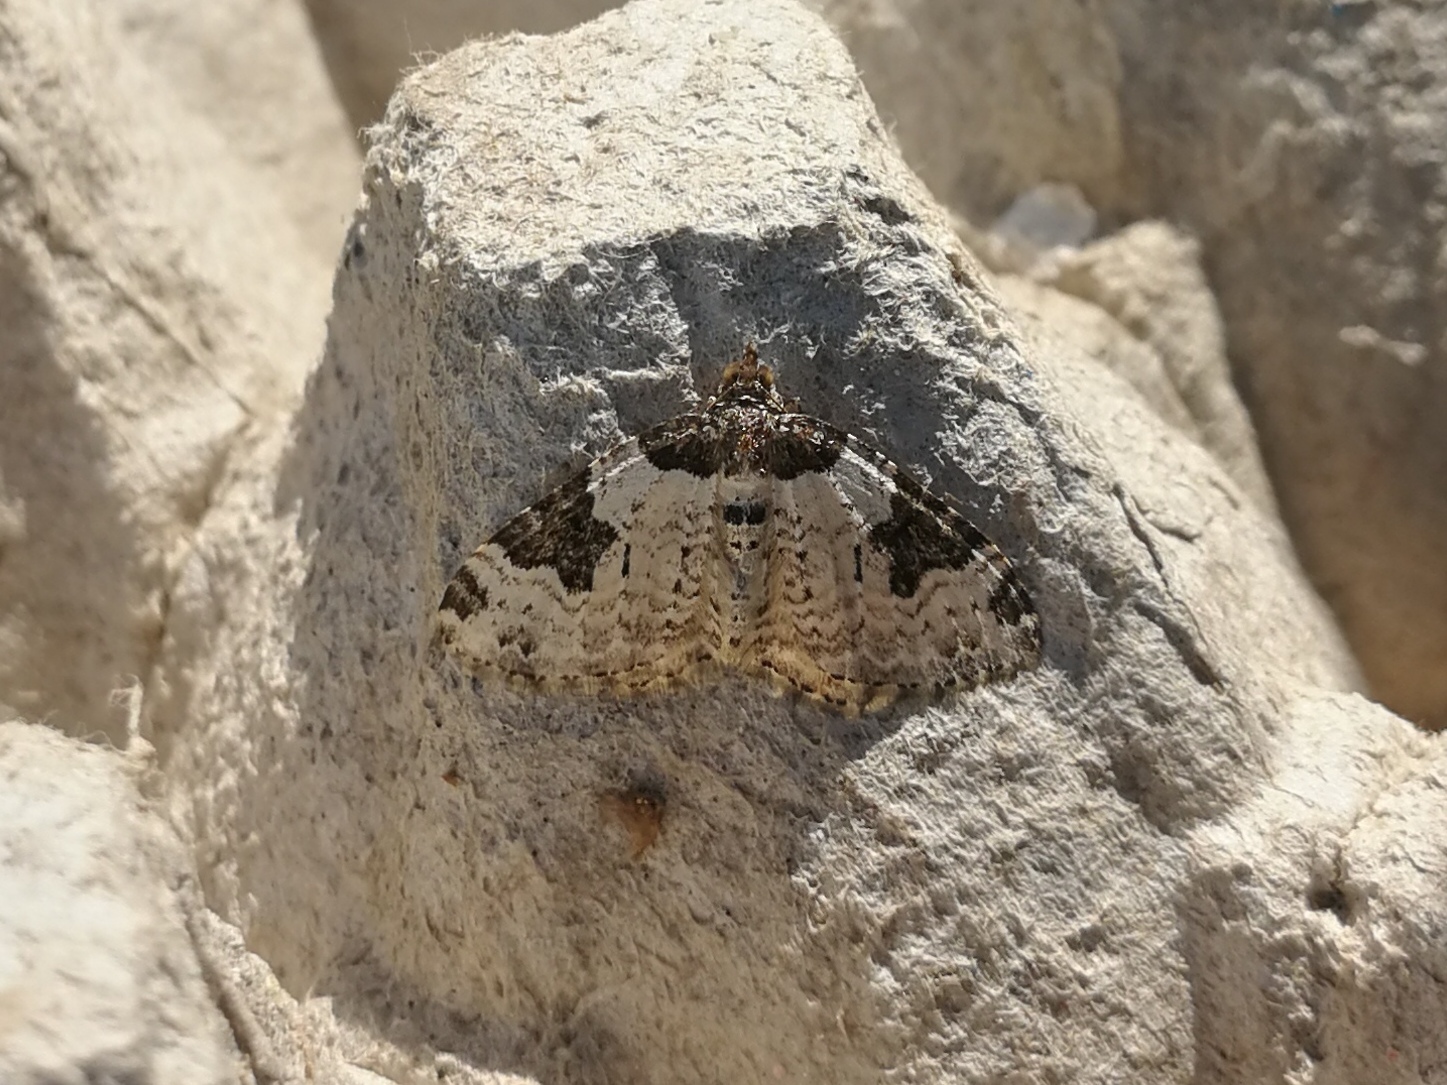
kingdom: Animalia
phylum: Arthropoda
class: Insecta
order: Lepidoptera
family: Geometridae
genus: Xanthorhoe
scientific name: Xanthorhoe fluctuata
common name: Garden carpet
